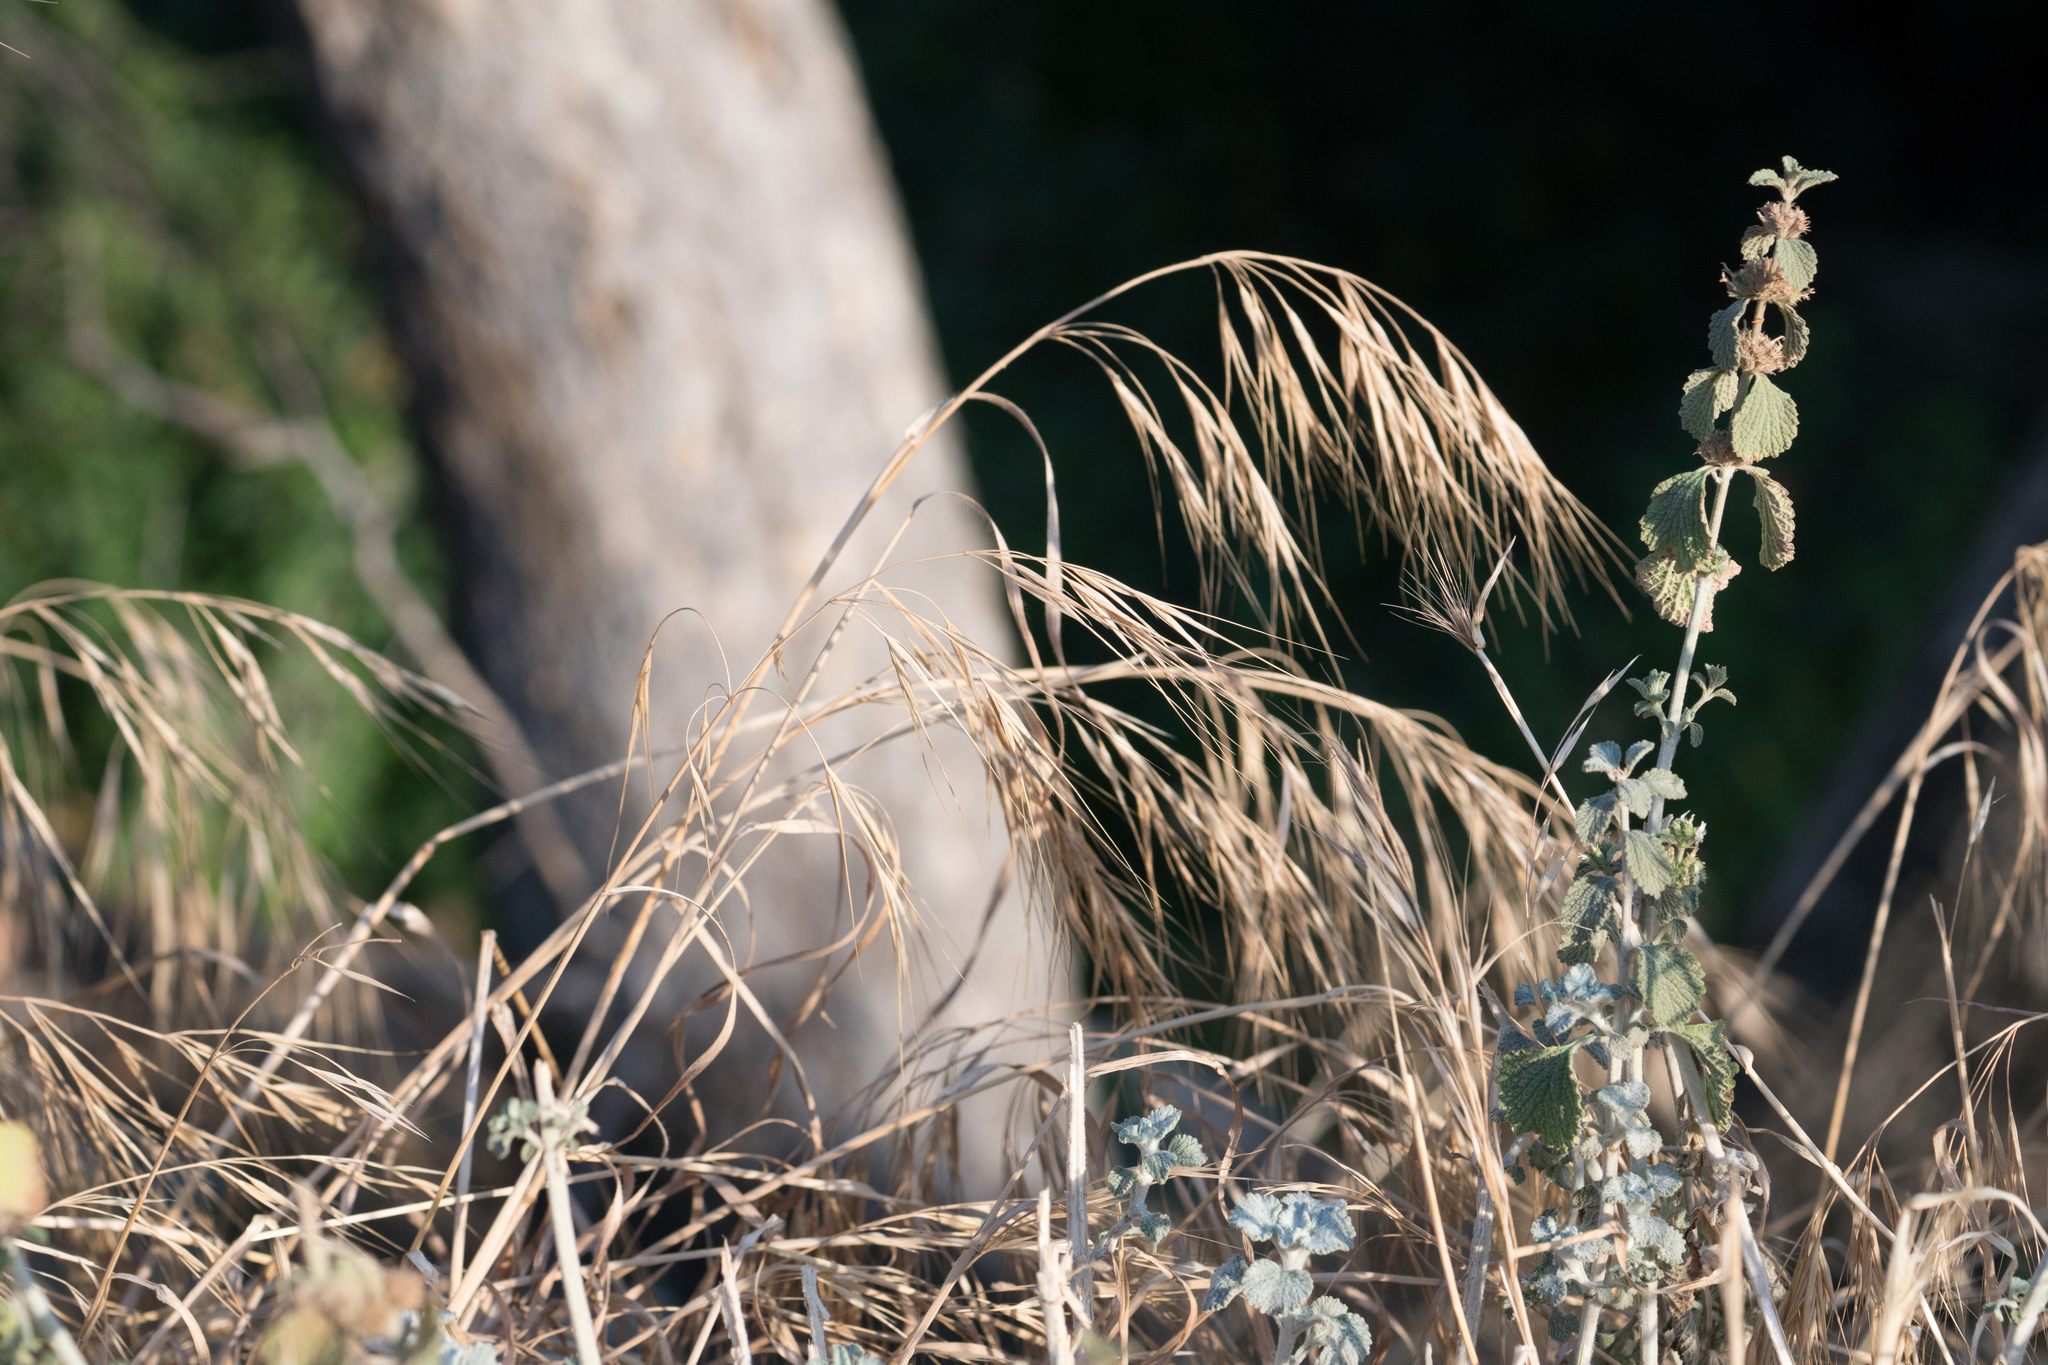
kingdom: Plantae
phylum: Tracheophyta
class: Liliopsida
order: Poales
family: Poaceae
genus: Bromus
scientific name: Bromus diandrus
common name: Ripgut brome
